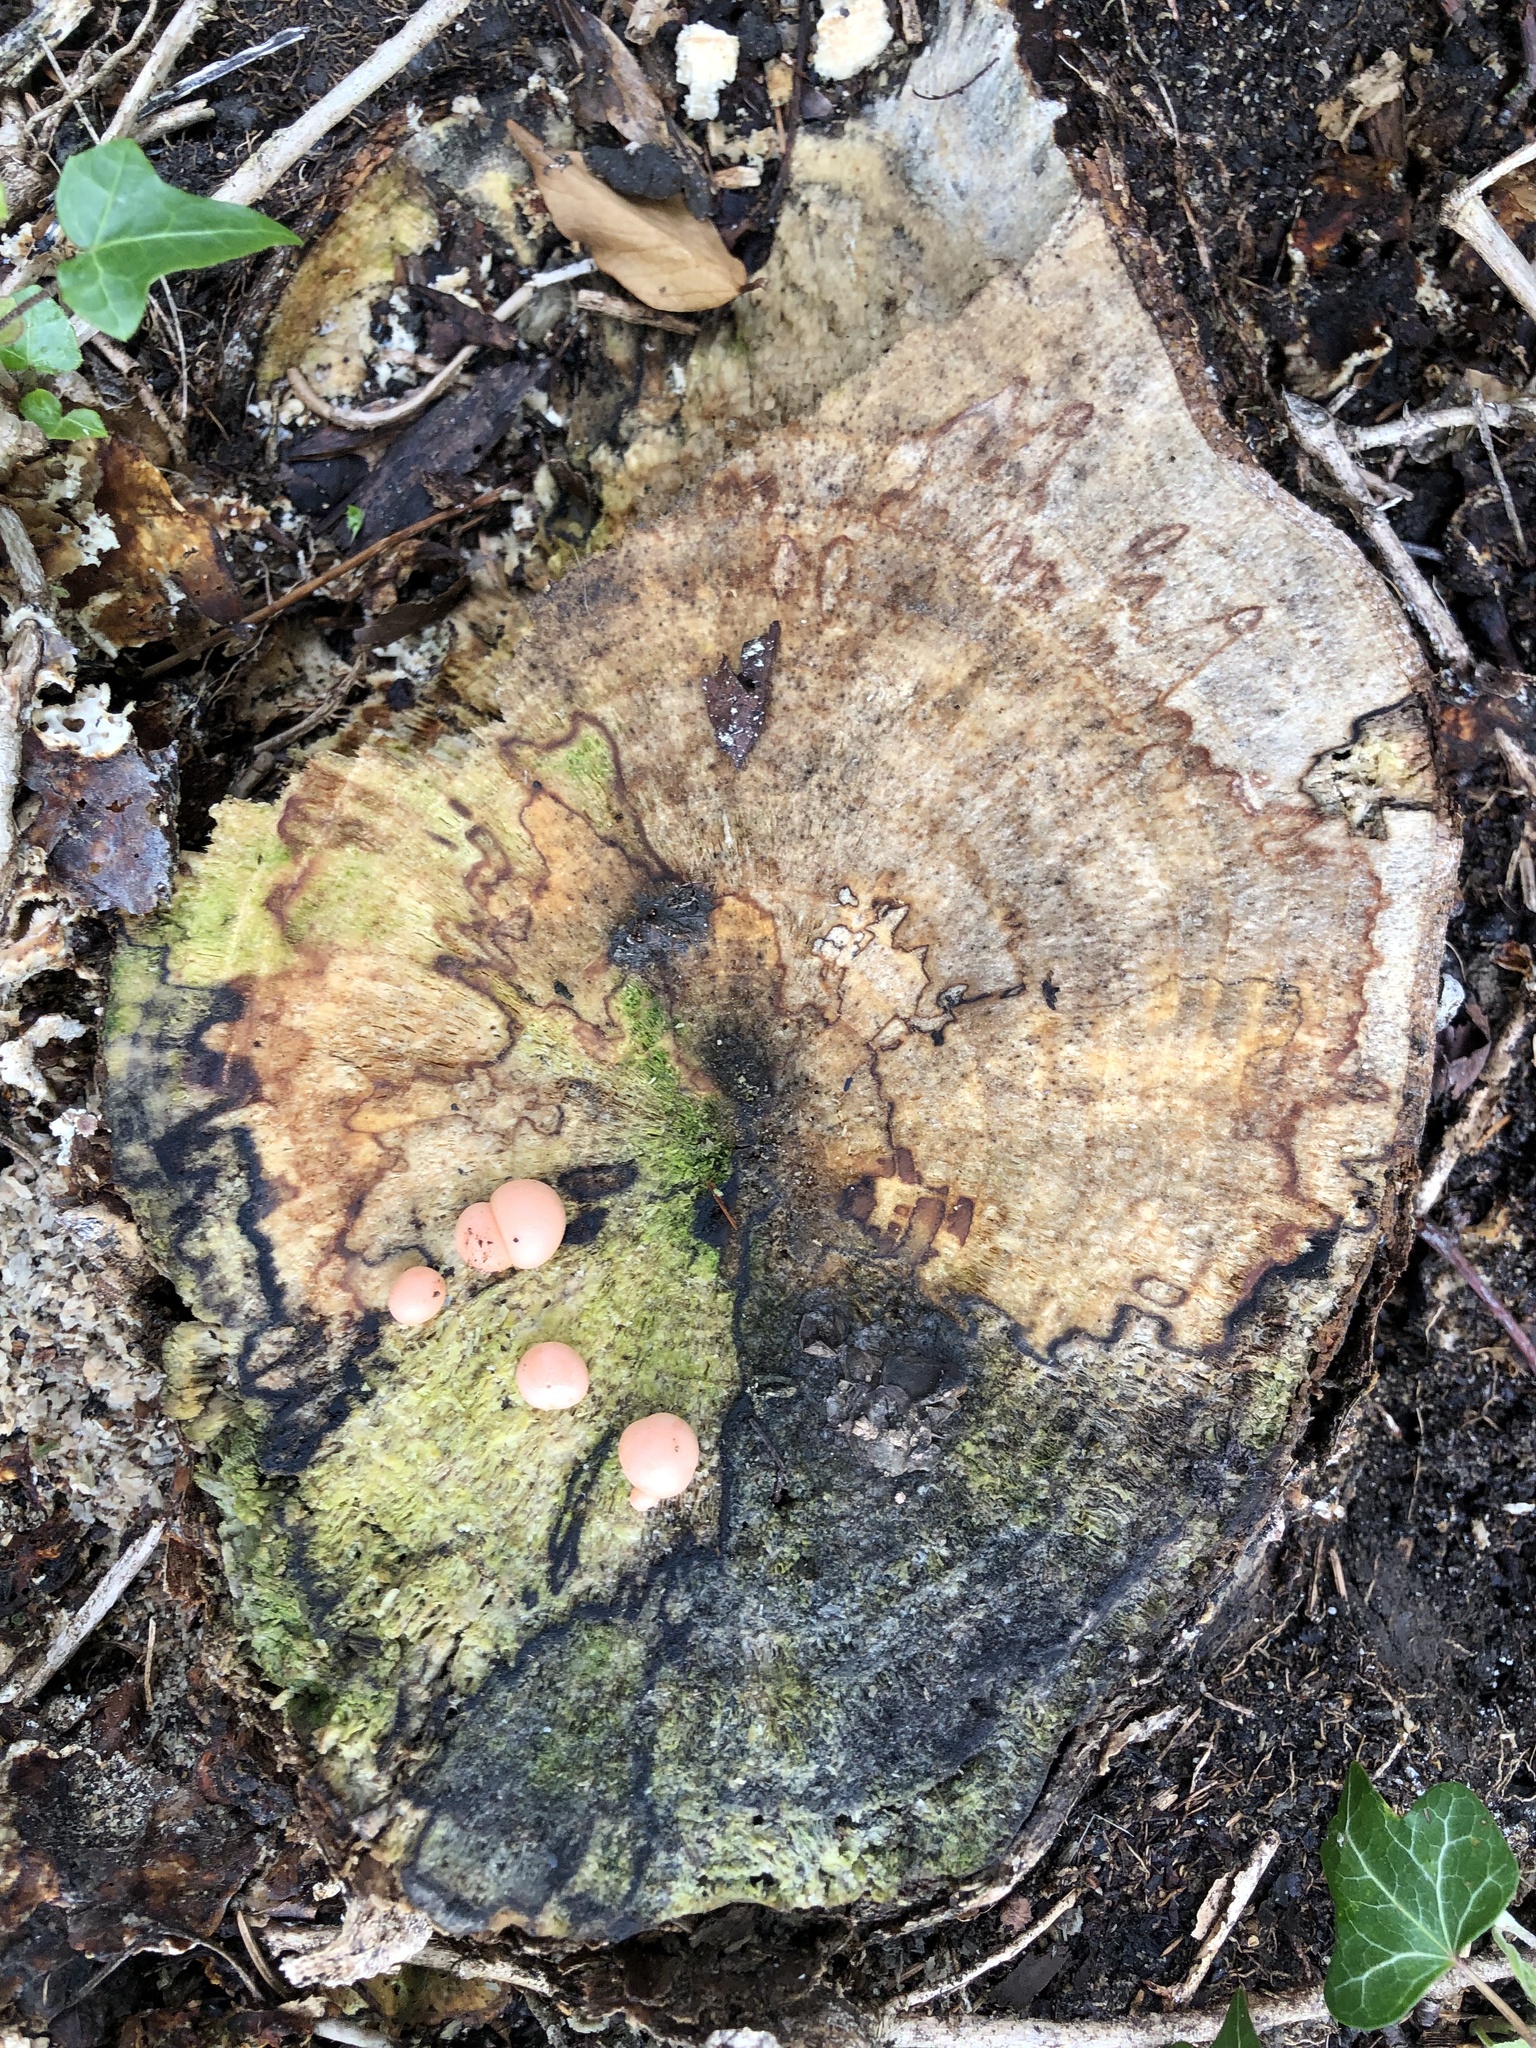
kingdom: Protozoa
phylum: Mycetozoa
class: Myxomycetes
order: Cribrariales
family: Tubiferaceae
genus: Lycogala
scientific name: Lycogala epidendrum
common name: Wolf's milk
